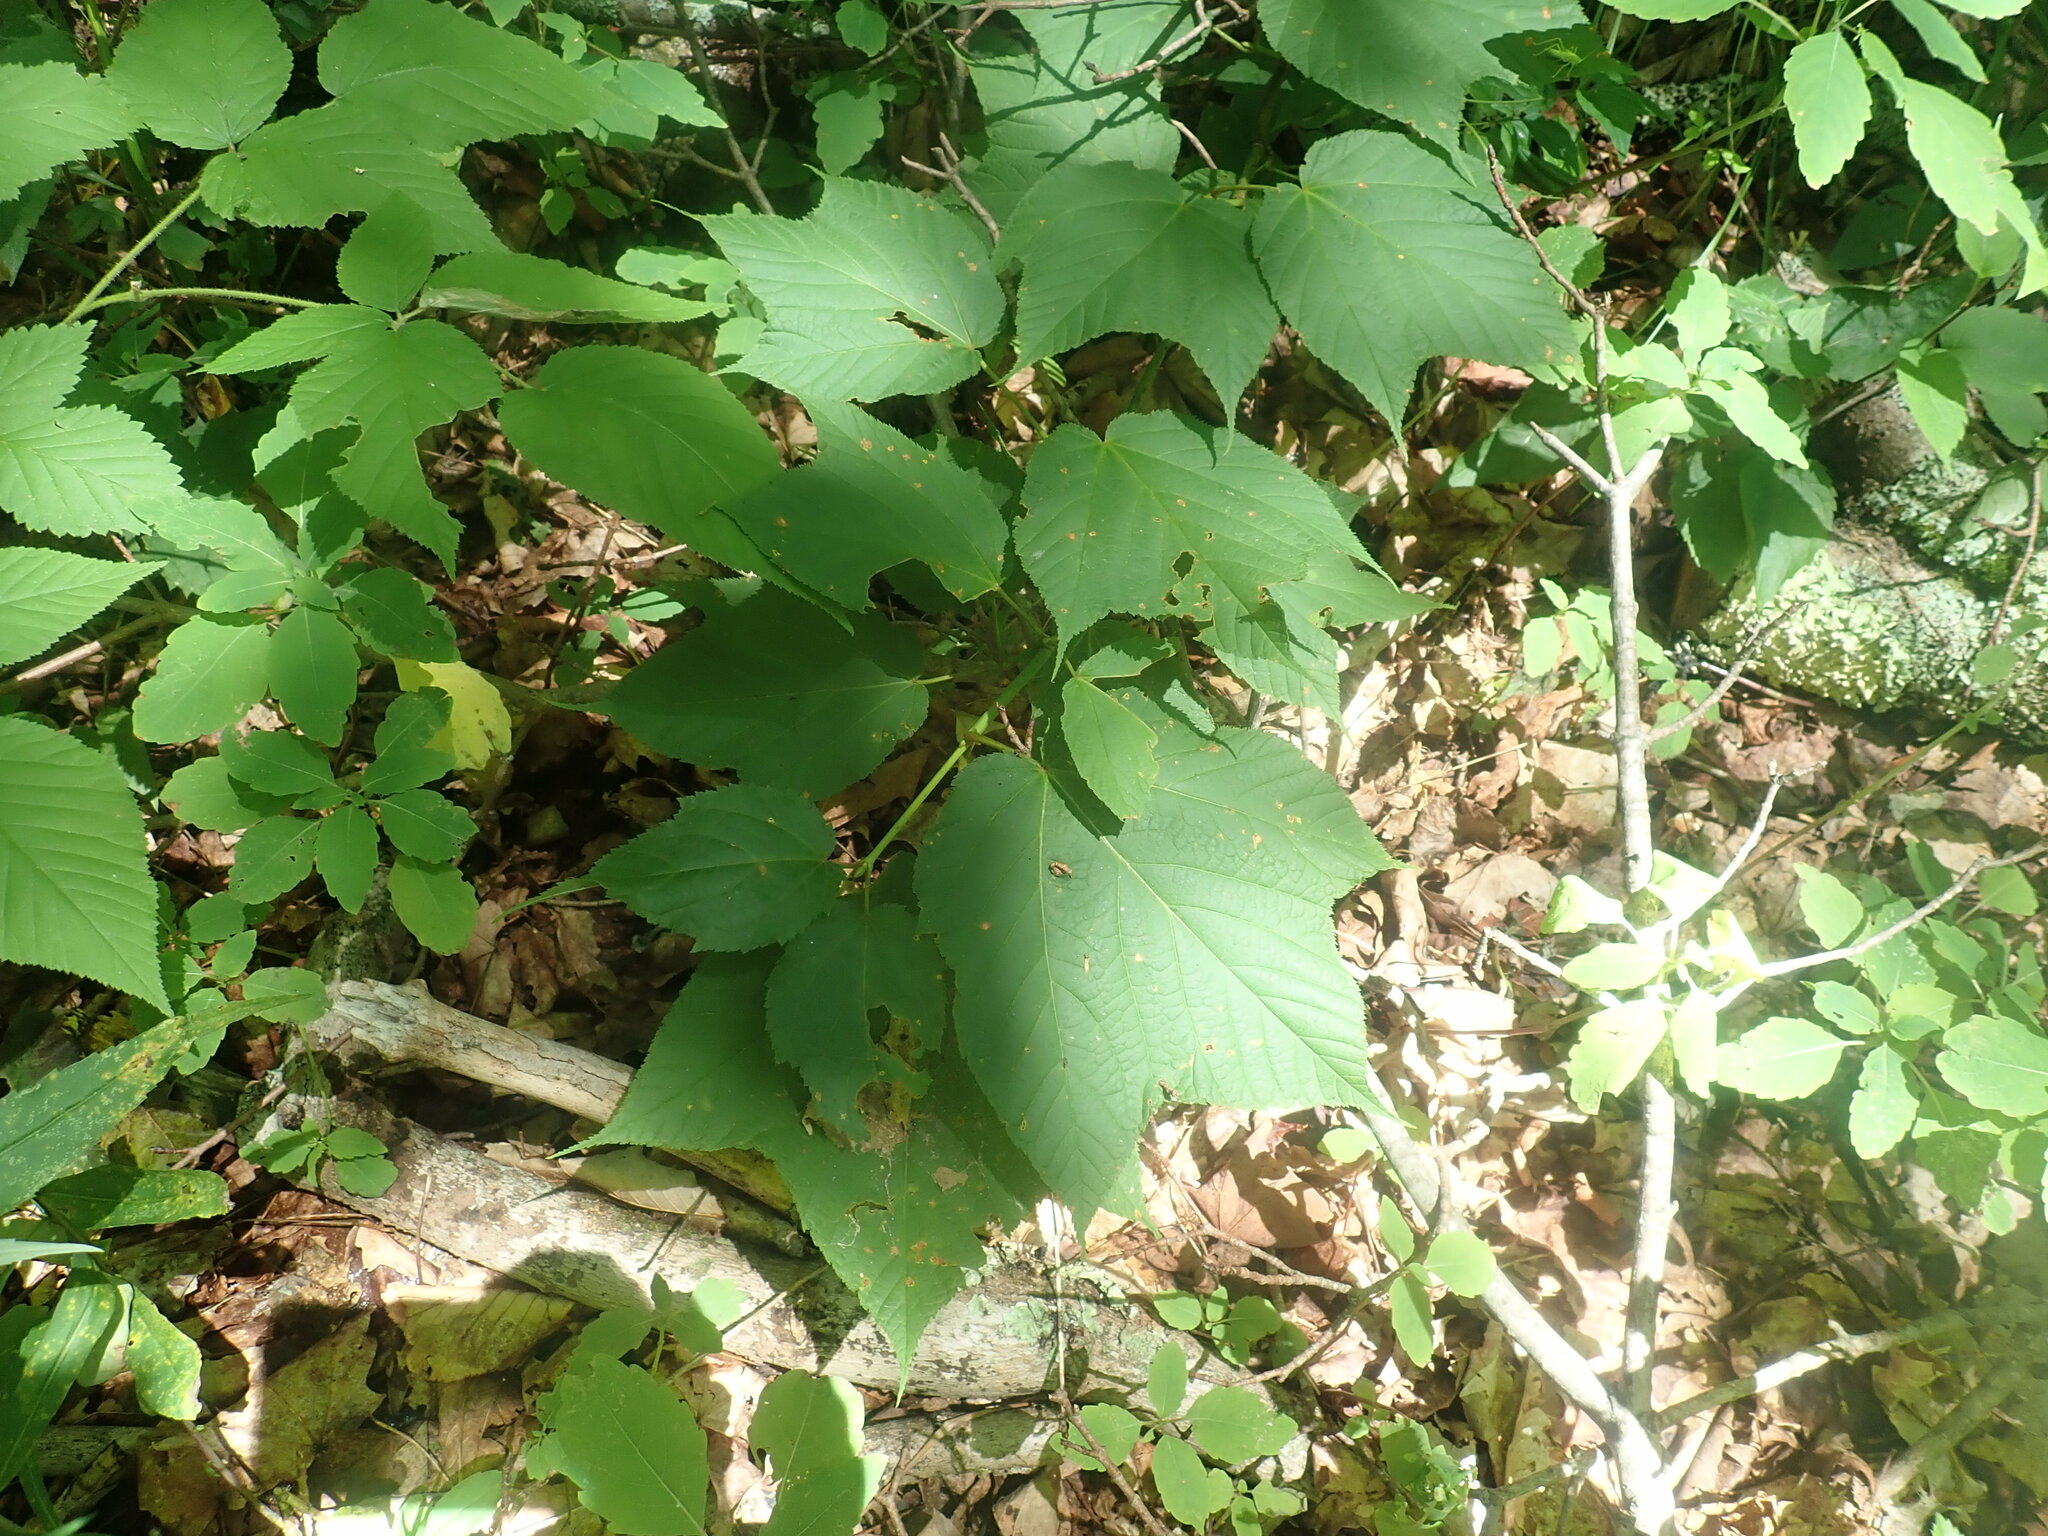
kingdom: Plantae
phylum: Tracheophyta
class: Magnoliopsida
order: Sapindales
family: Sapindaceae
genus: Acer
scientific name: Acer pensylvanicum
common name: Moosewood
